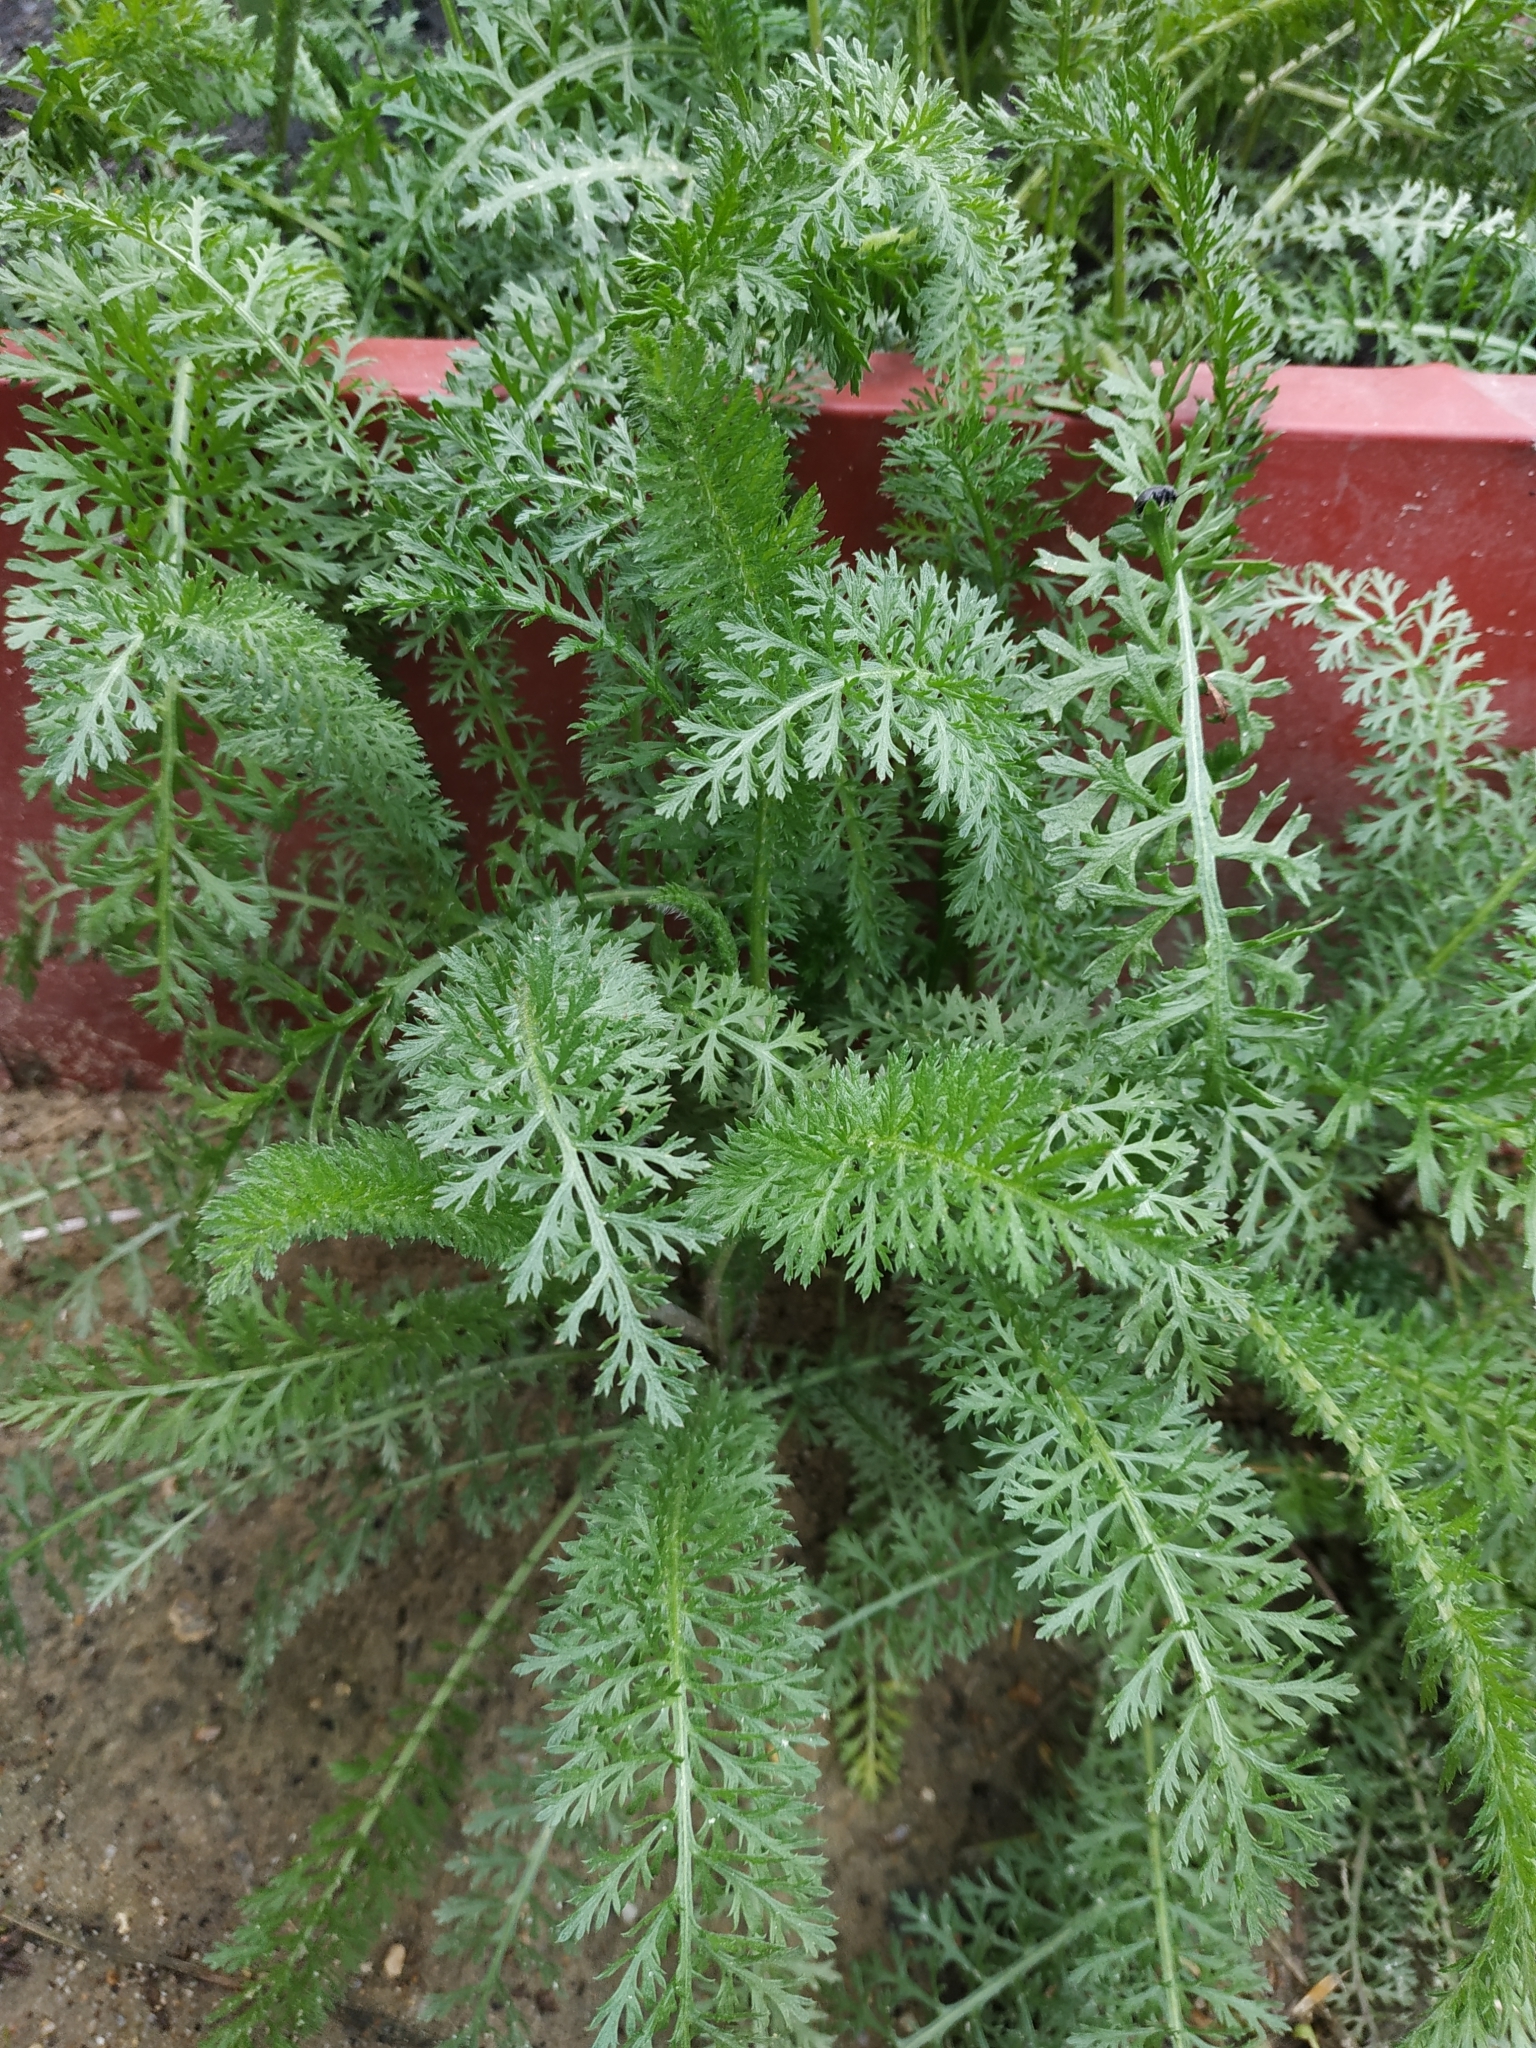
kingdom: Plantae
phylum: Tracheophyta
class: Magnoliopsida
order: Asterales
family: Asteraceae
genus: Achillea
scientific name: Achillea millefolium
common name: Yarrow
